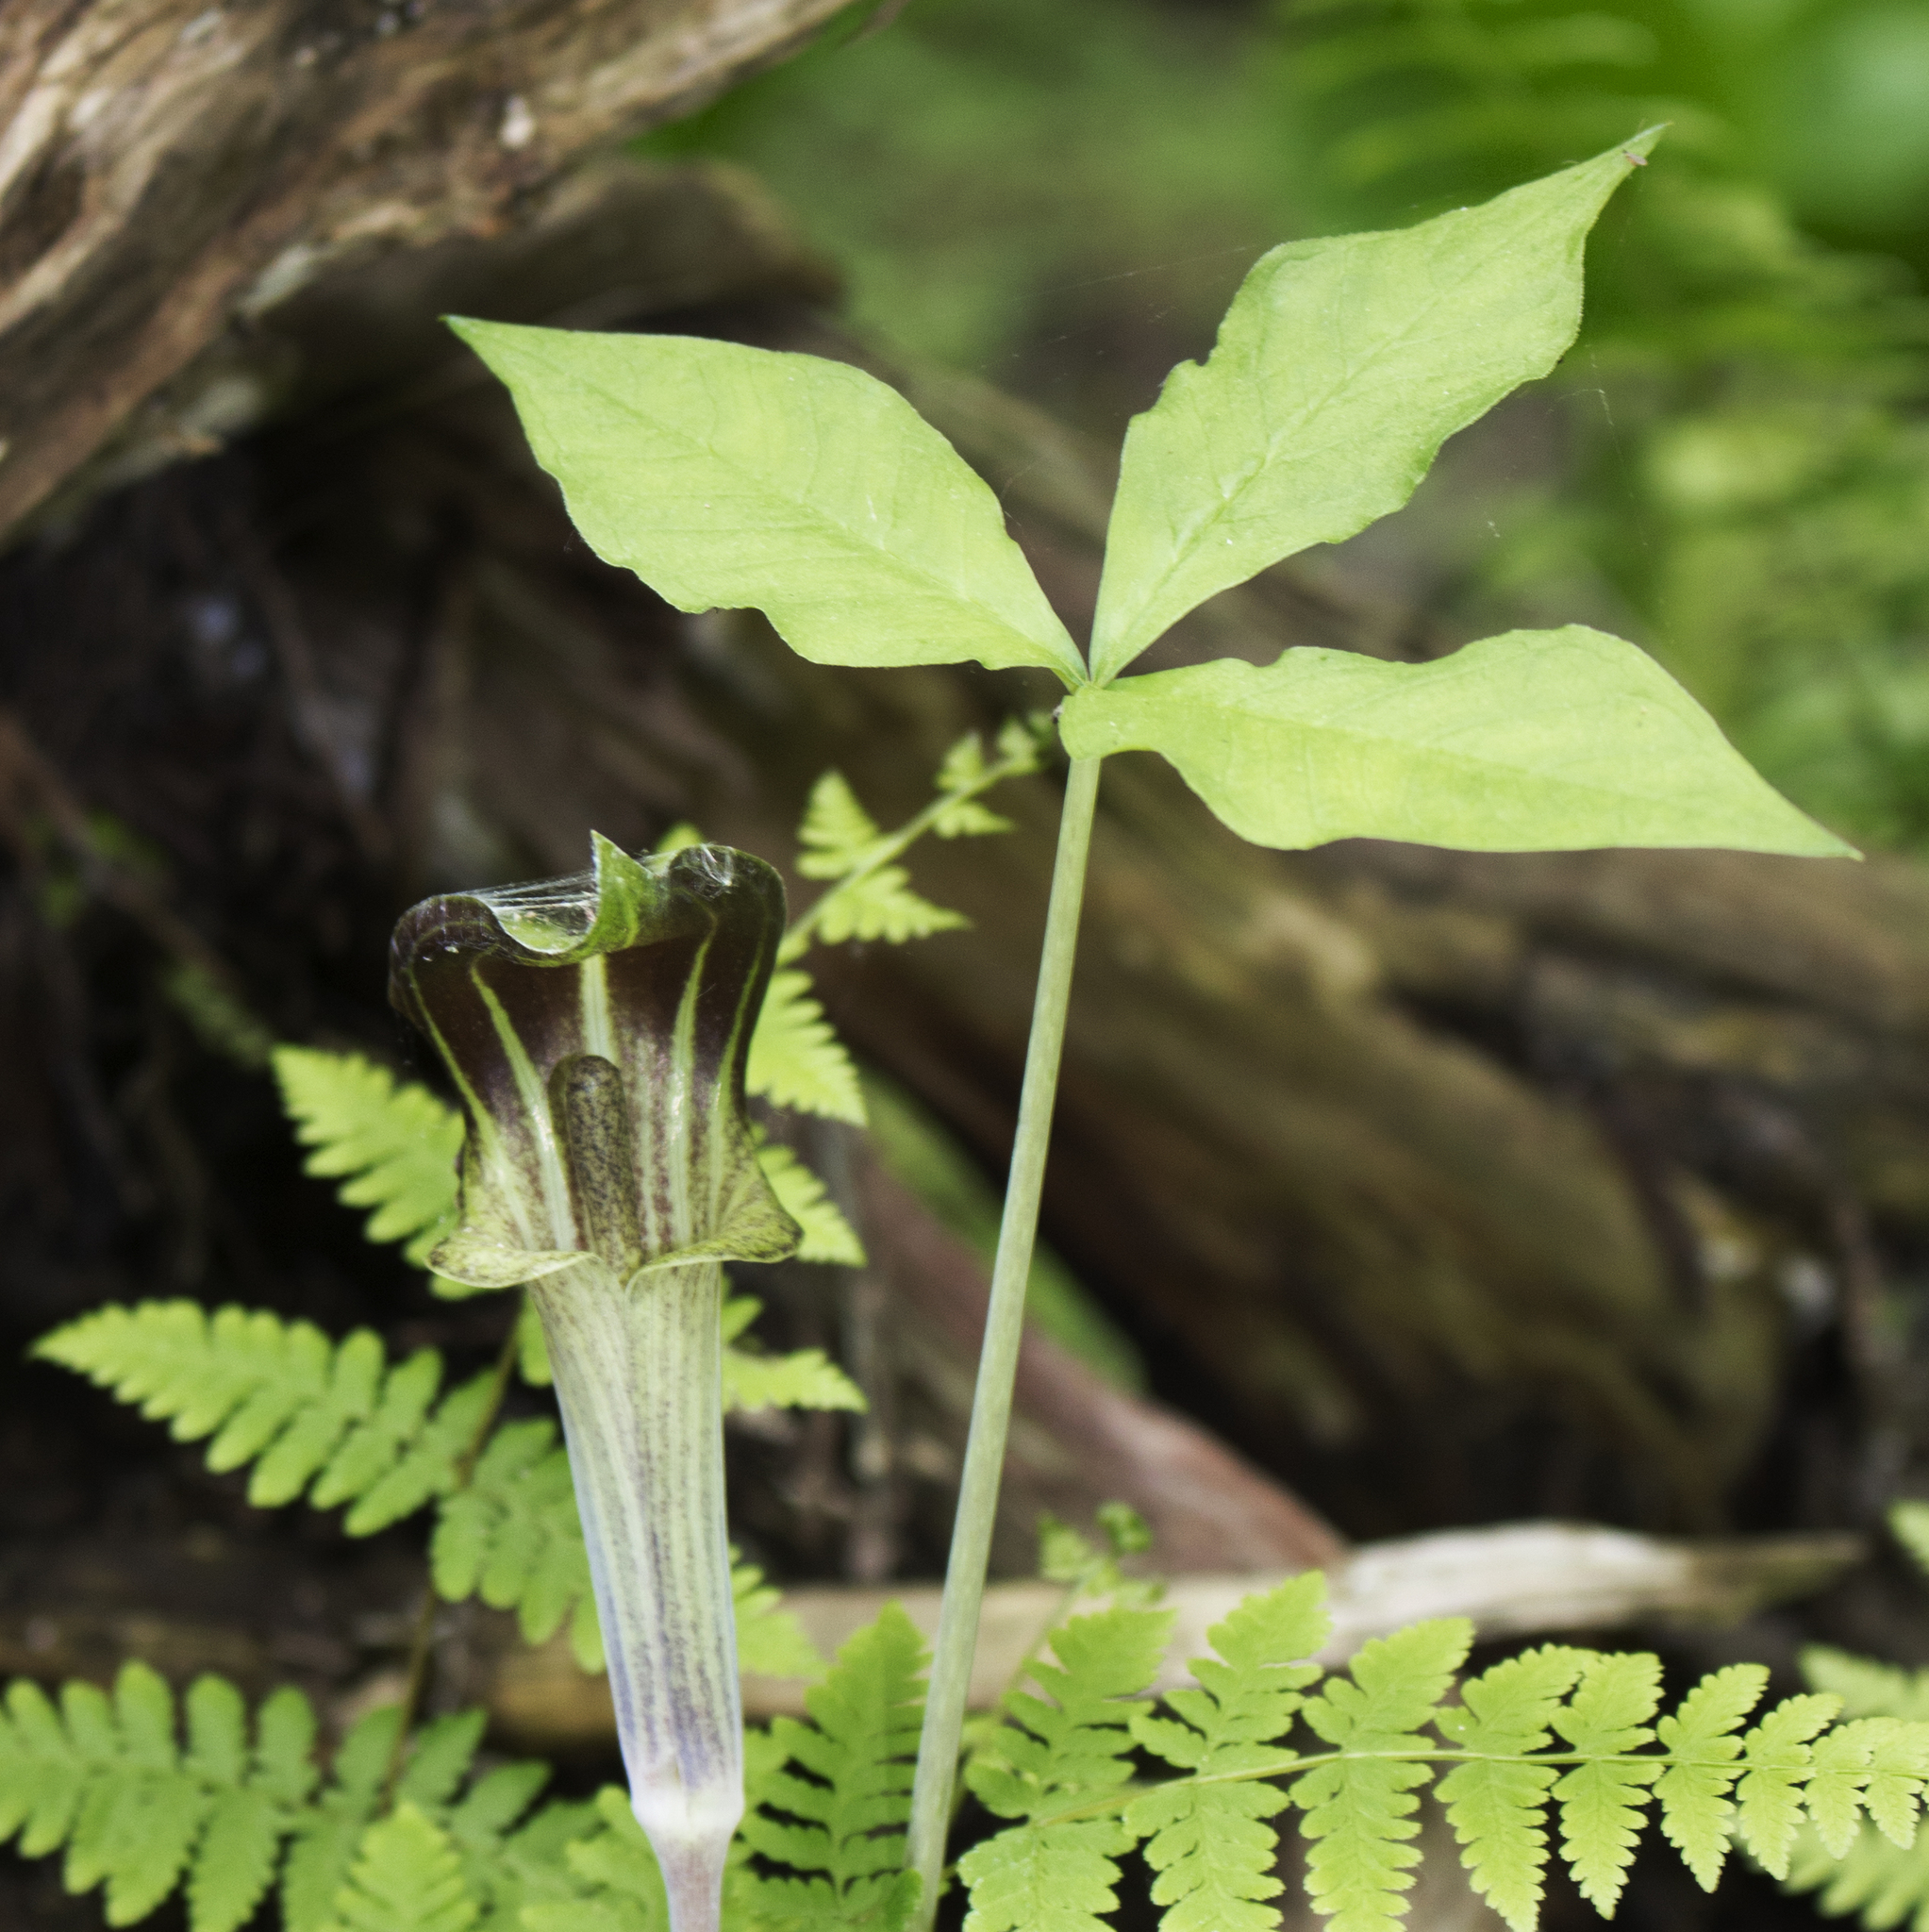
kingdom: Plantae
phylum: Tracheophyta
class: Liliopsida
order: Alismatales
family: Araceae
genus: Arisaema
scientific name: Arisaema triphyllum
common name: Jack-in-the-pulpit
